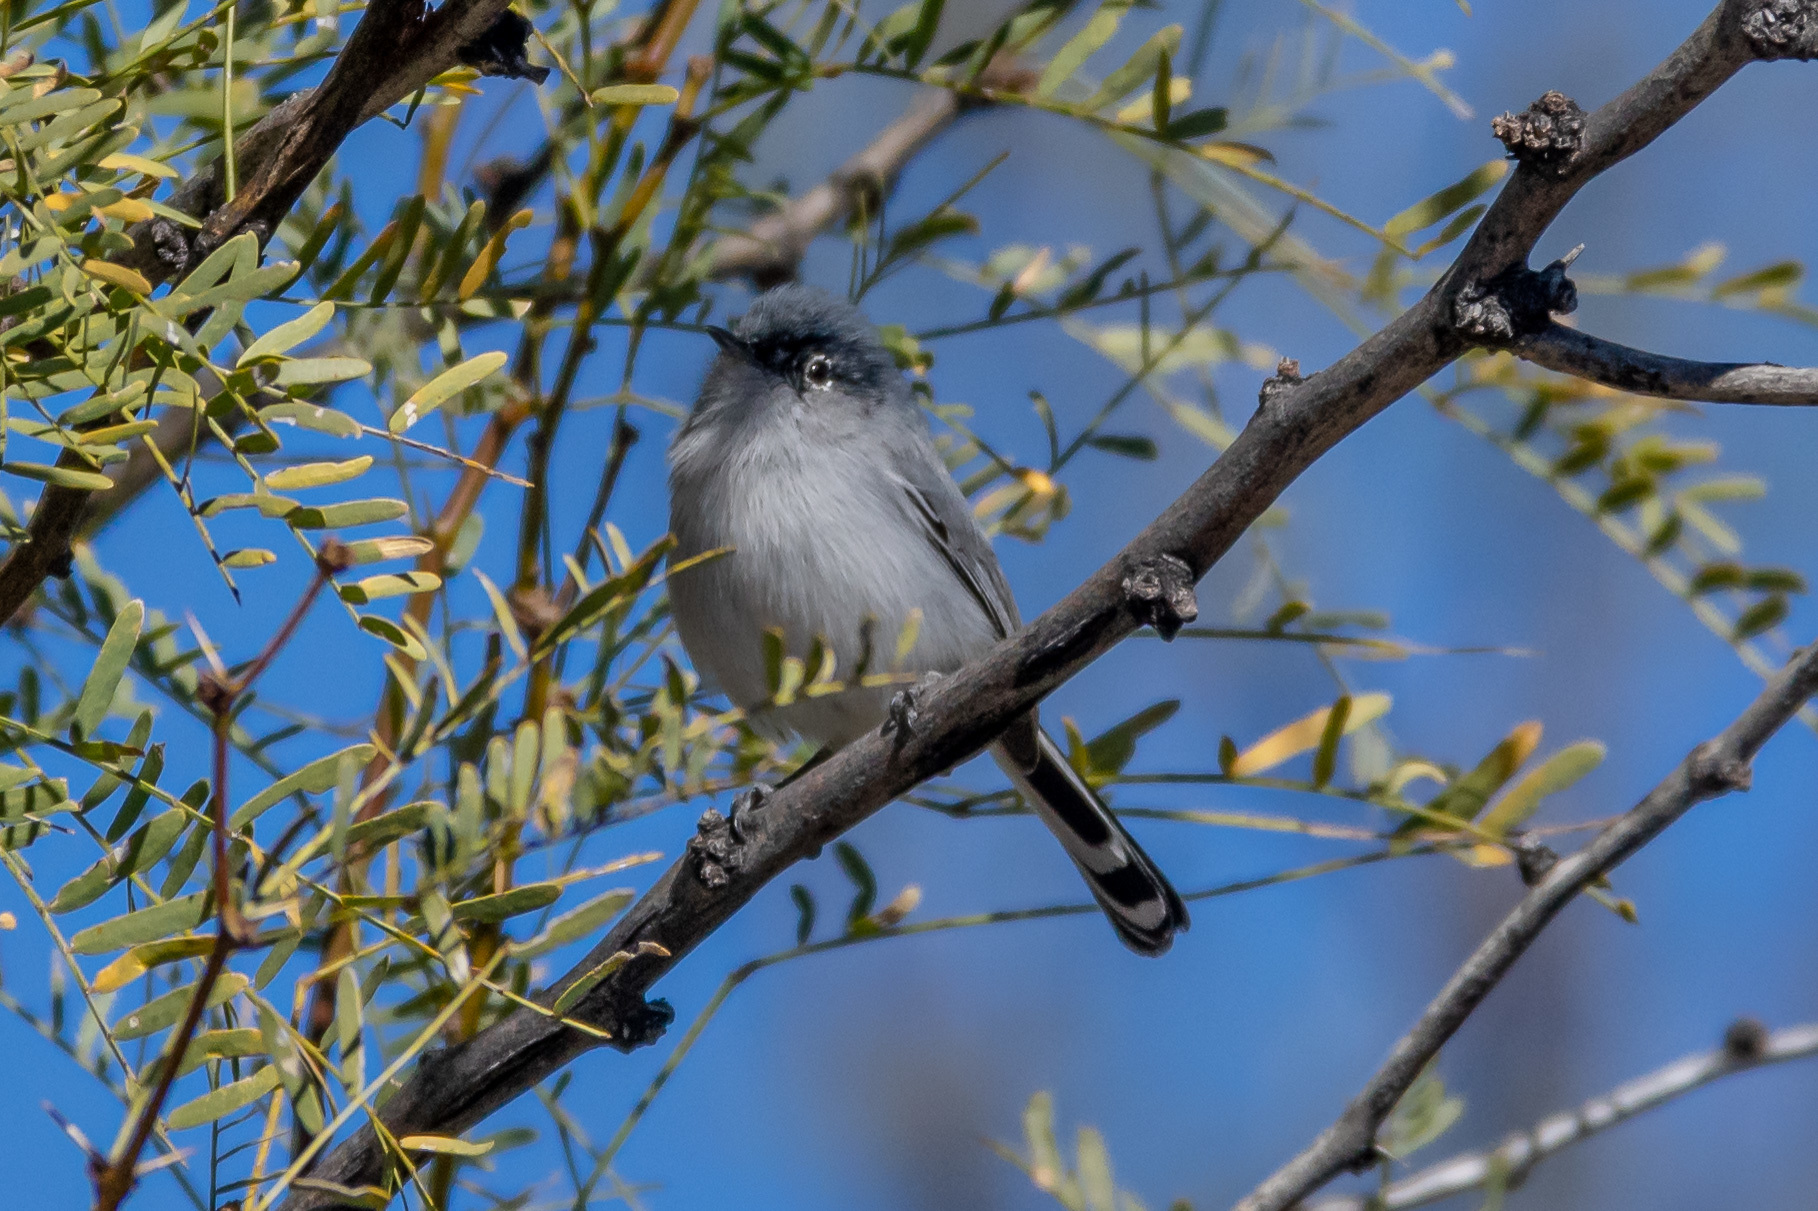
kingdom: Animalia
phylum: Chordata
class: Aves
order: Passeriformes
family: Polioptilidae
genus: Polioptila
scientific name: Polioptila melanura
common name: Black-tailed gnatcatcher
